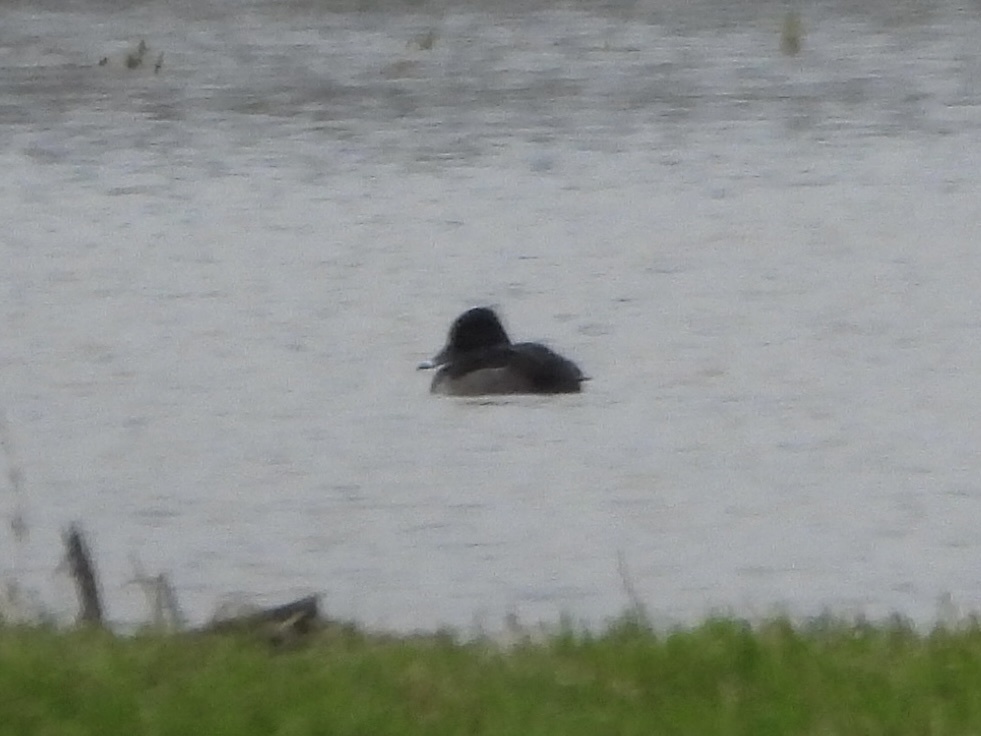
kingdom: Animalia
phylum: Chordata
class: Aves
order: Anseriformes
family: Anatidae
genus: Aythya
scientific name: Aythya collaris
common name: Ring-necked duck
